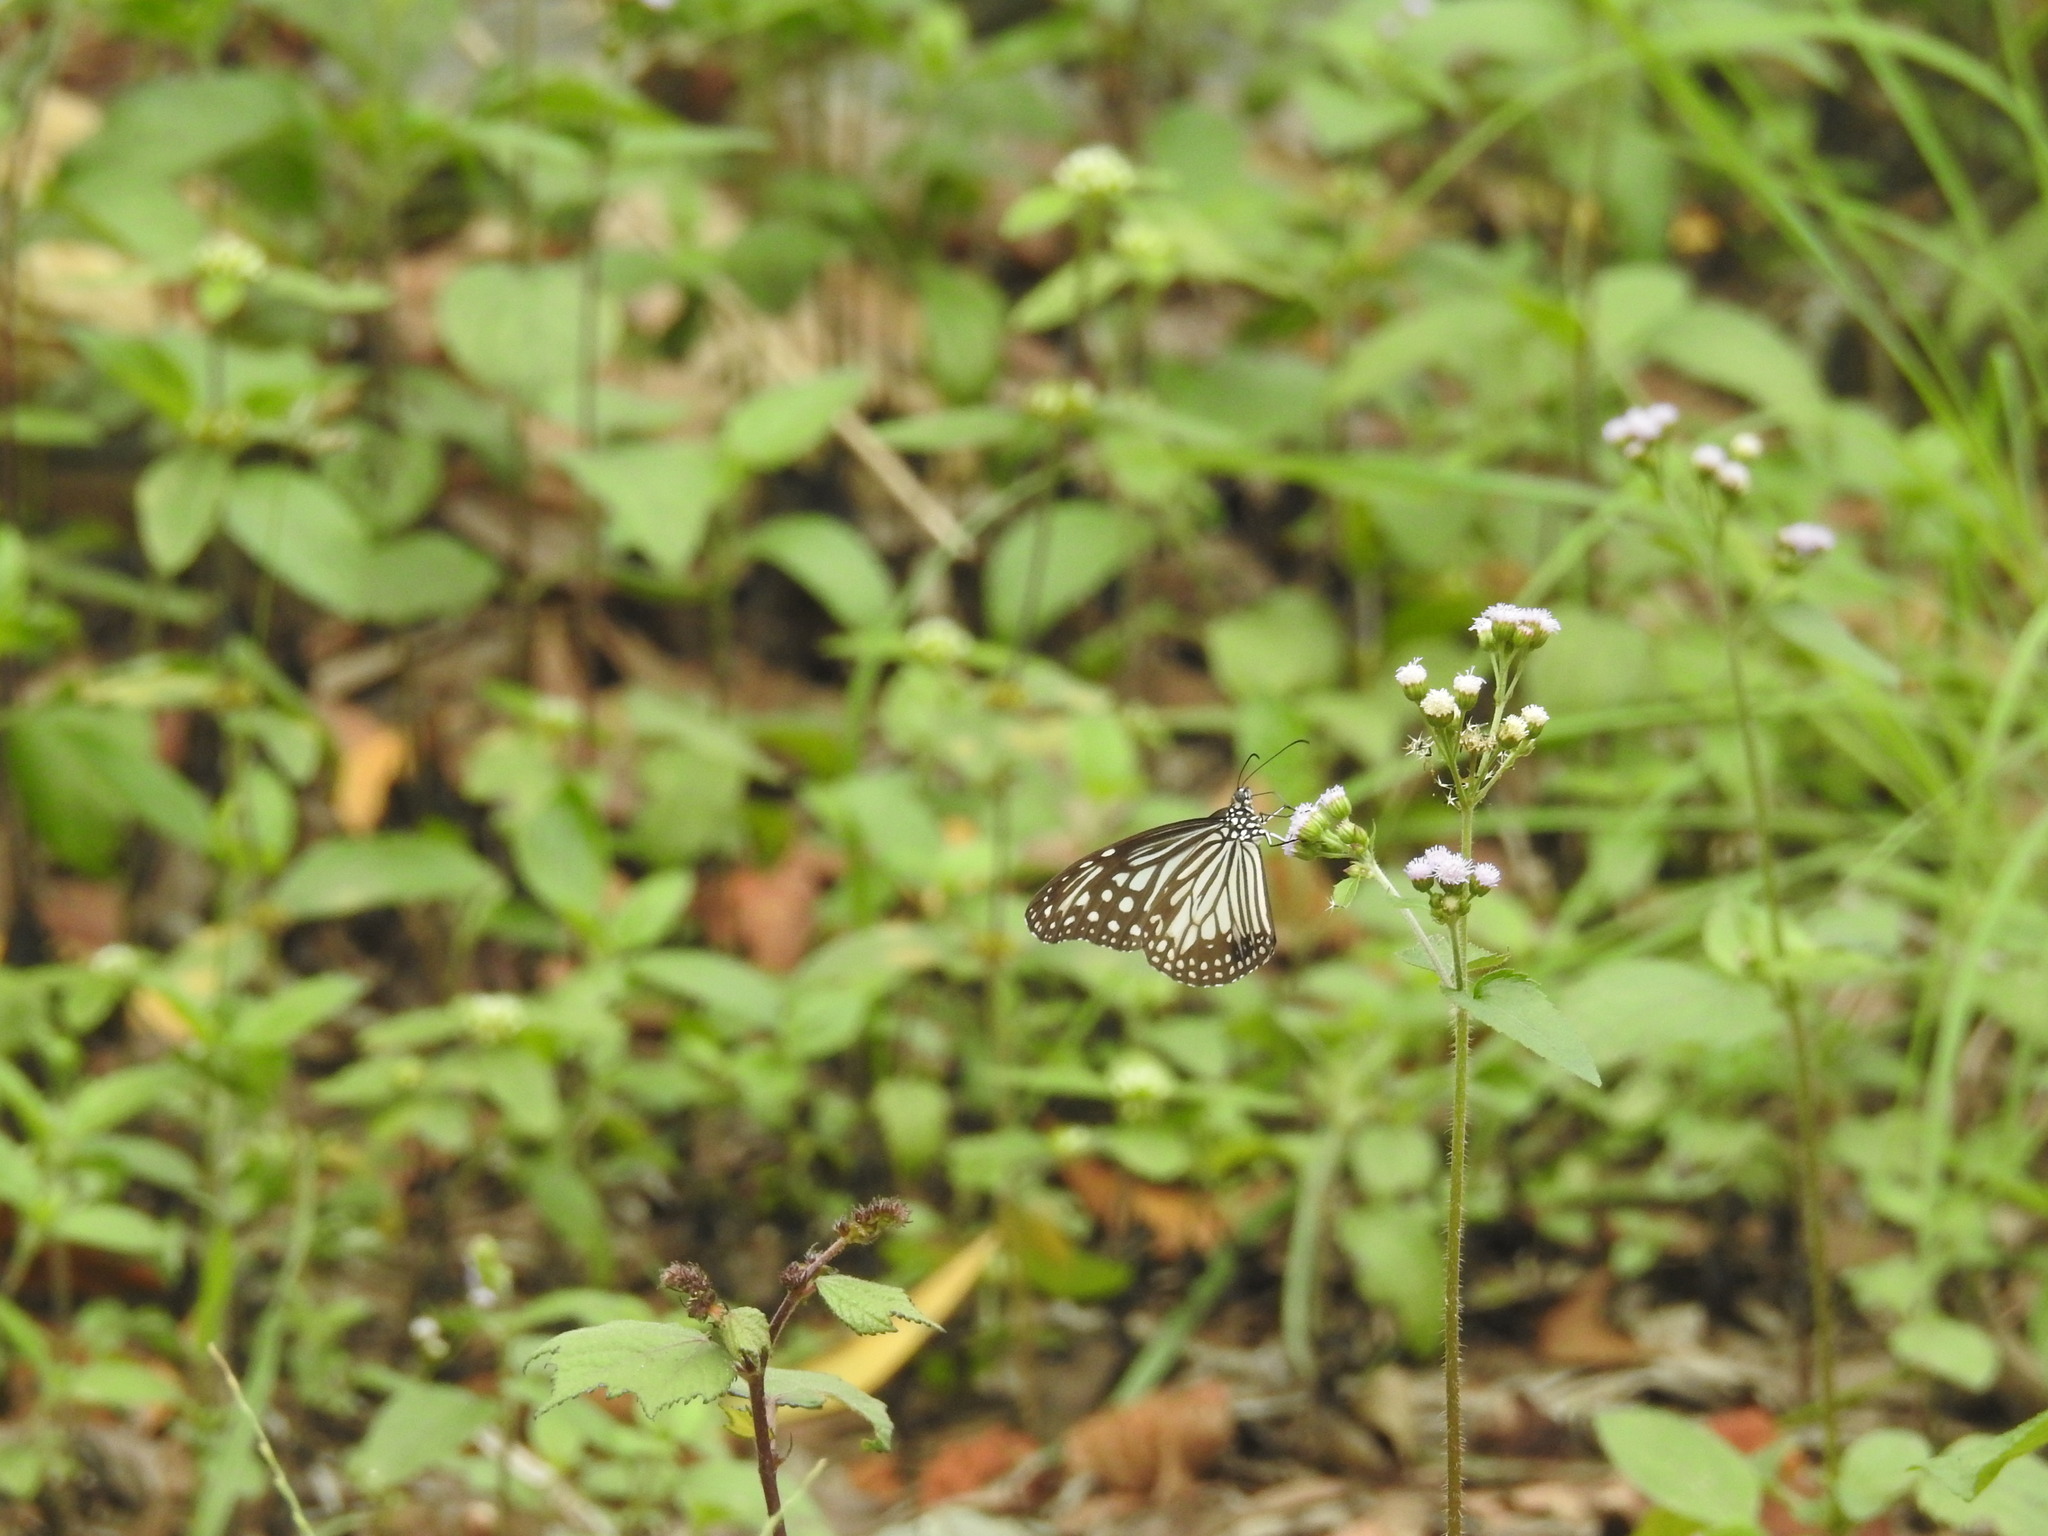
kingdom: Animalia
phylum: Arthropoda
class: Insecta
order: Lepidoptera
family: Nymphalidae
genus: Parantica
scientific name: Parantica aglea
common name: Glassy tiger
